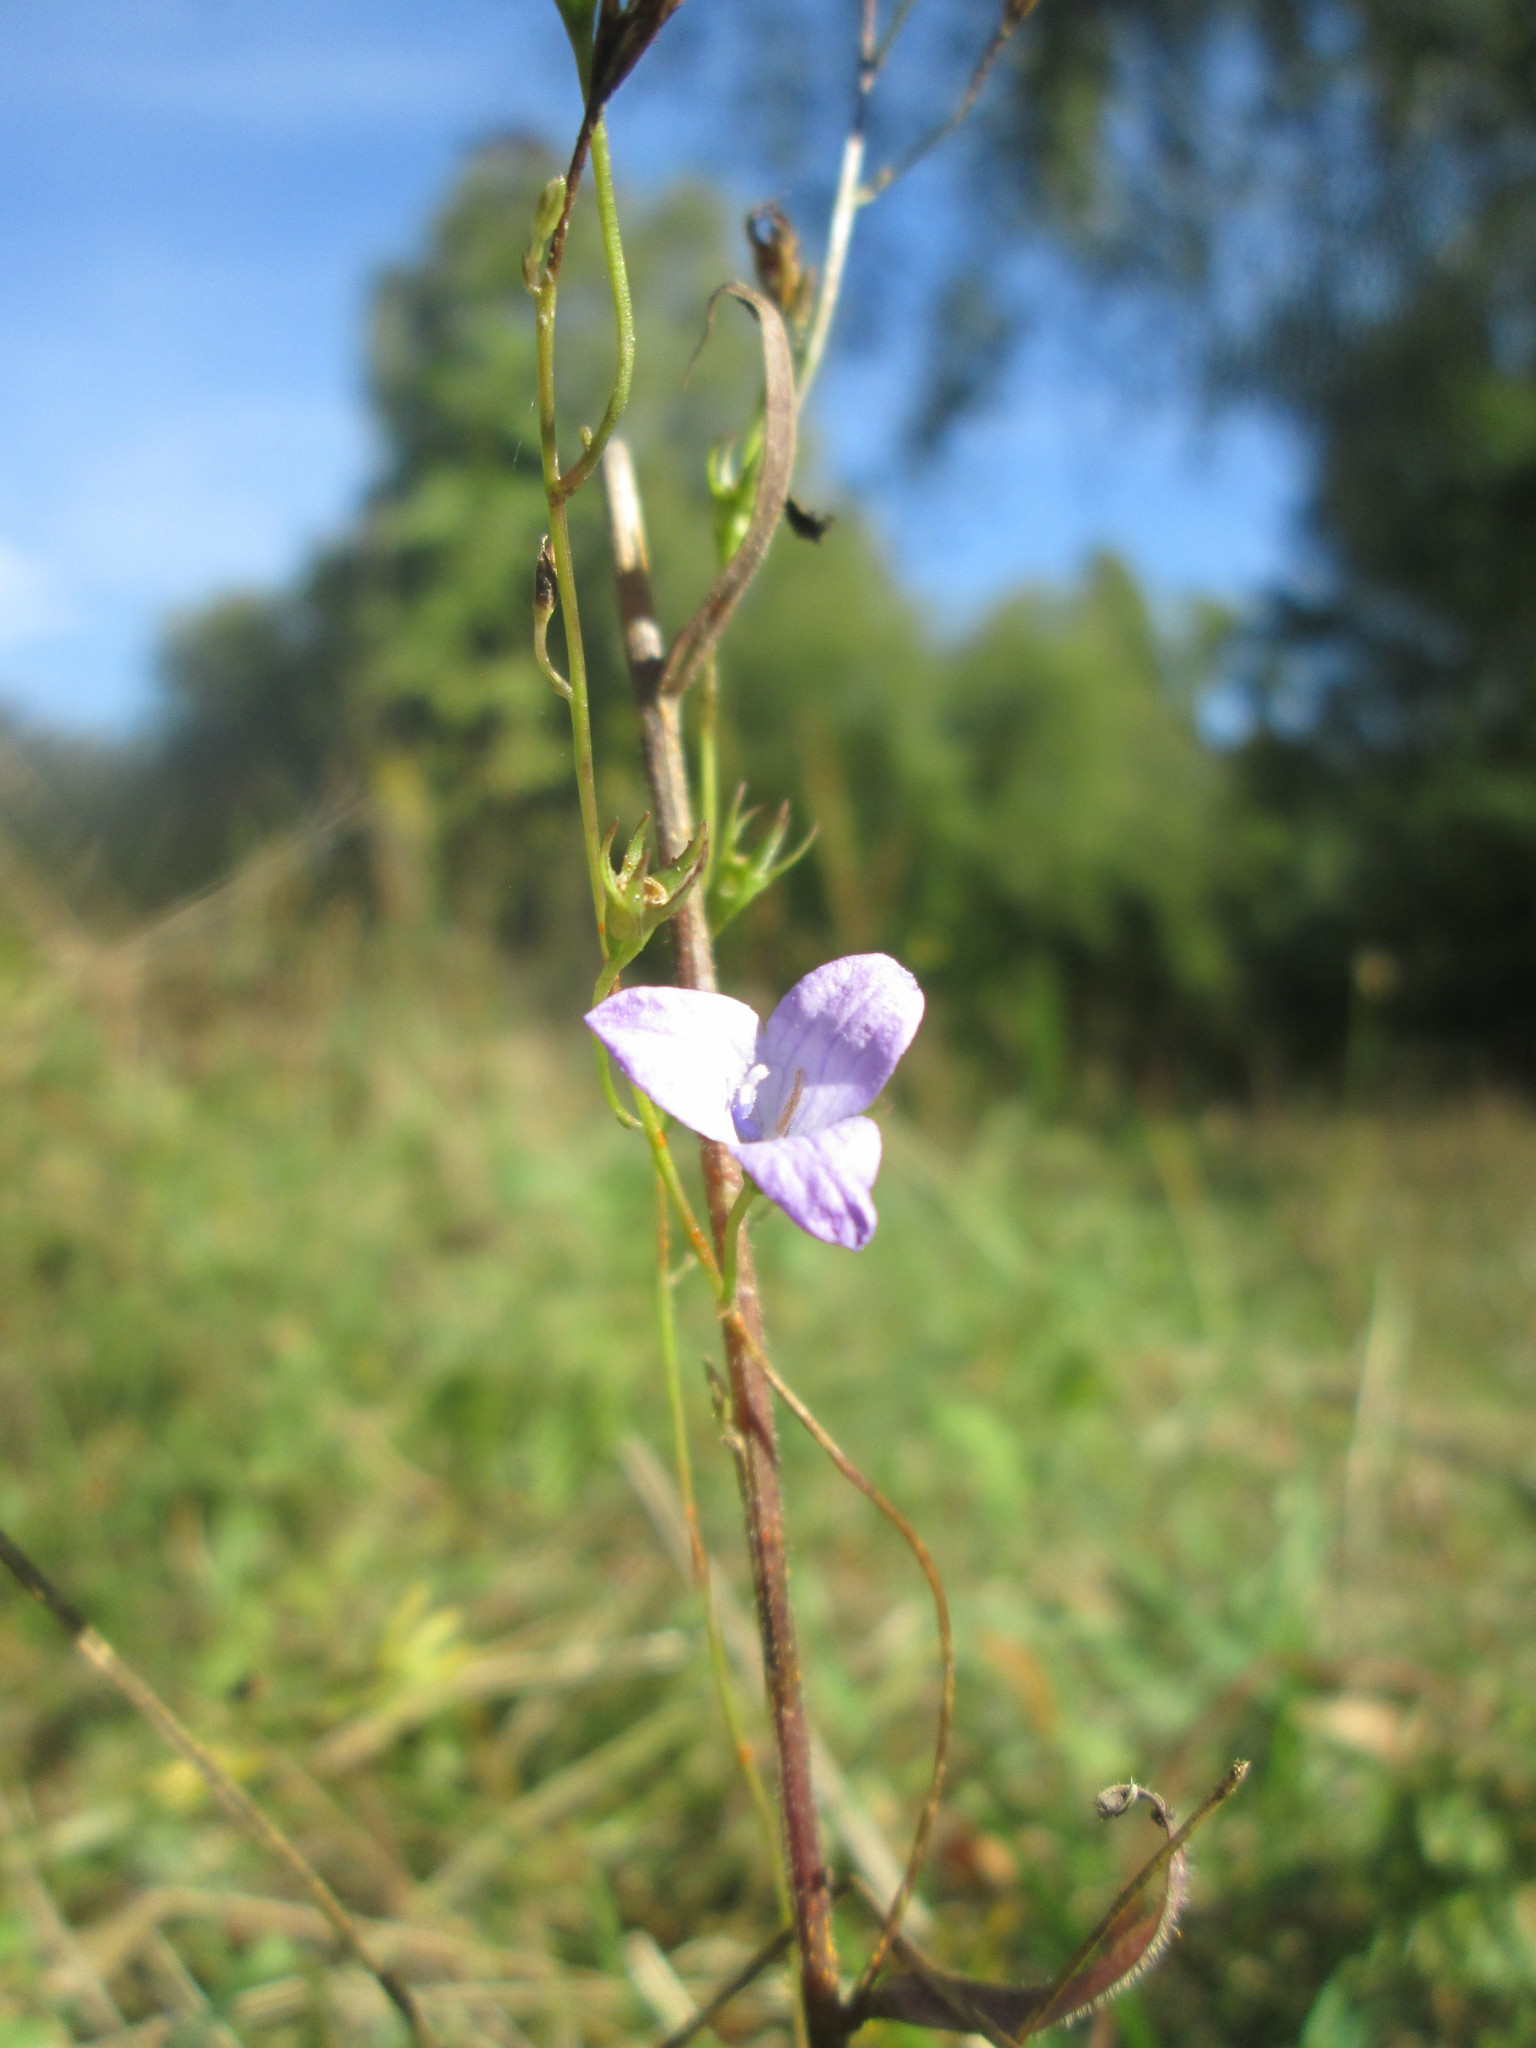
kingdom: Plantae
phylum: Tracheophyta
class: Magnoliopsida
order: Asterales
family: Campanulaceae
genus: Campanula
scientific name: Campanula rapunculus
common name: Rampion bellflower
